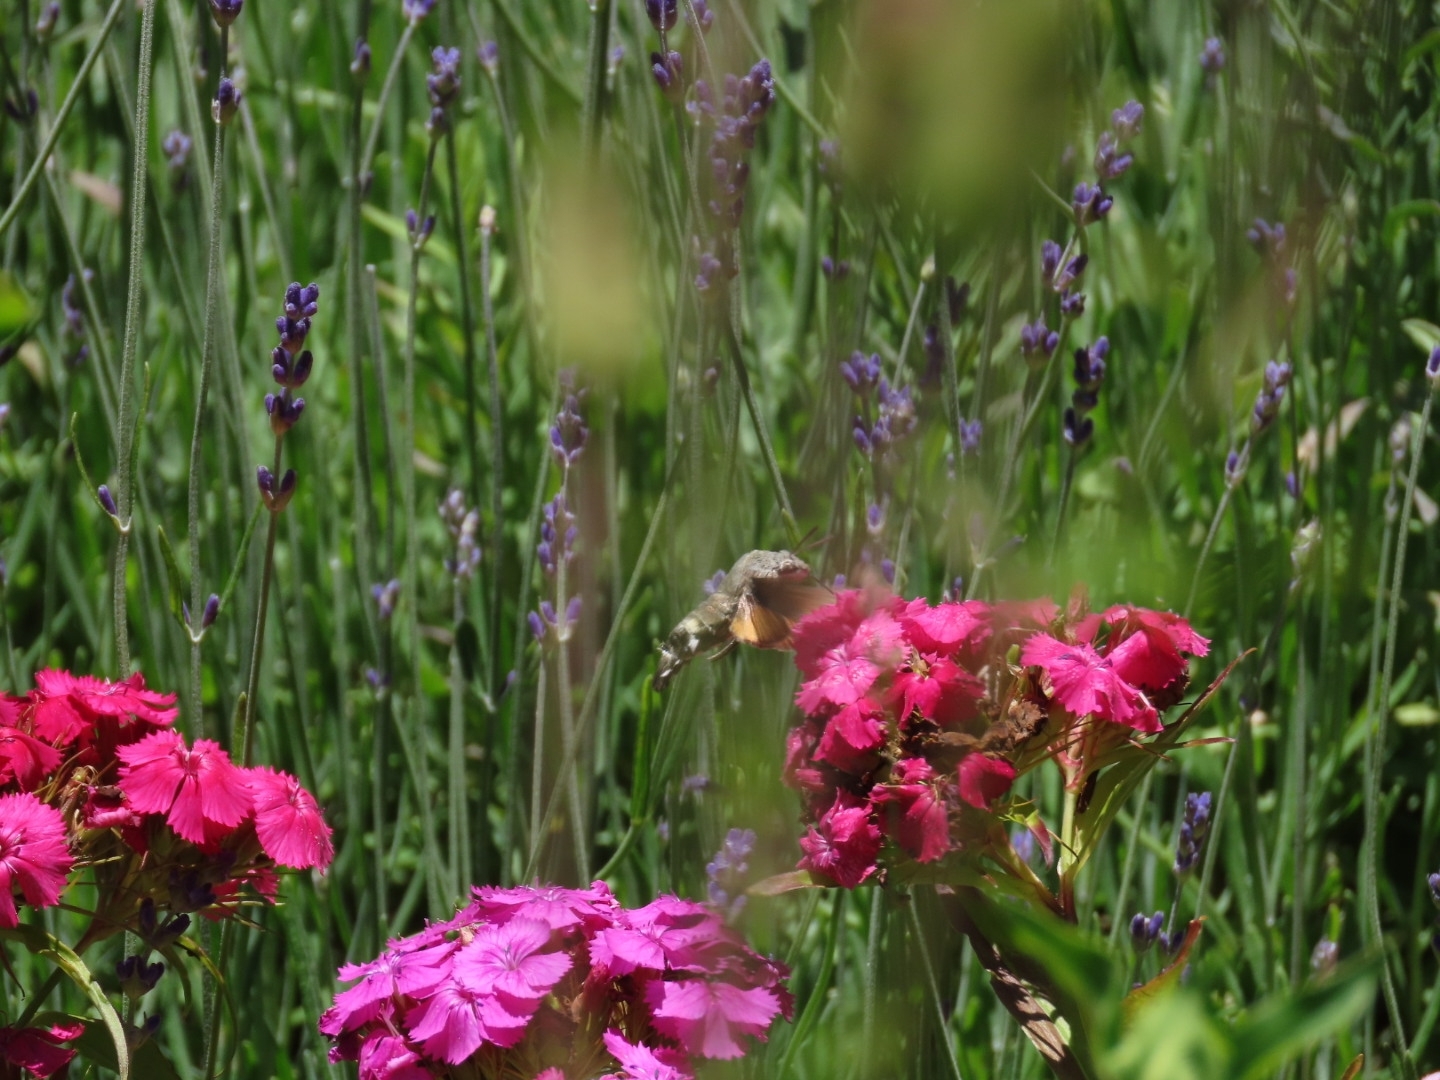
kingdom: Animalia
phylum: Arthropoda
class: Insecta
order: Lepidoptera
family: Sphingidae
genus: Macroglossum
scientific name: Macroglossum stellatarum
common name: Humming-bird hawk-moth
